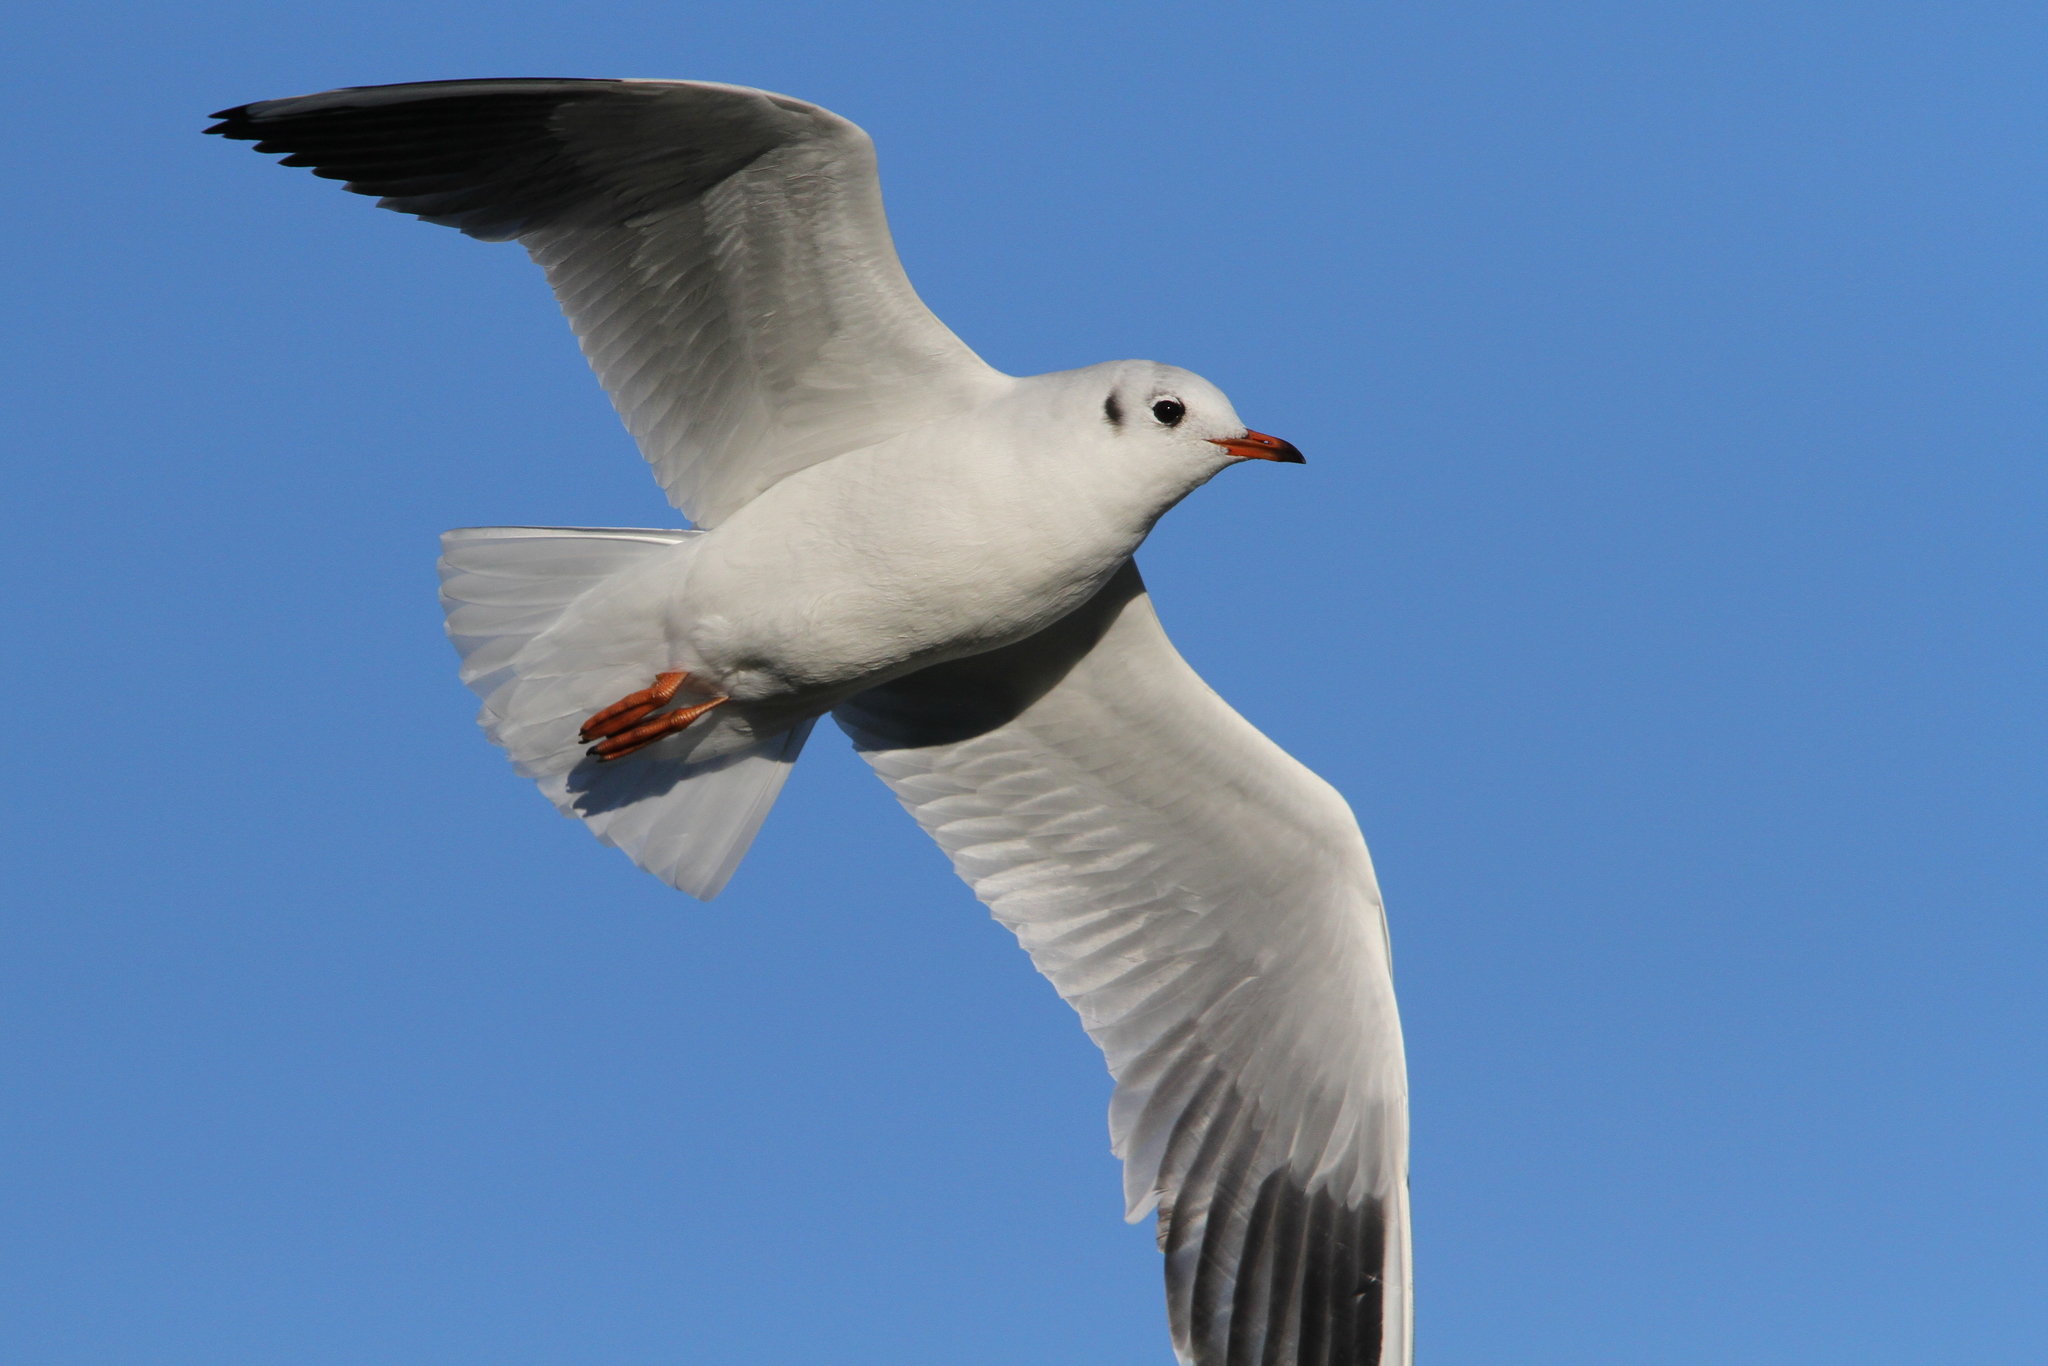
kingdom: Animalia
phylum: Chordata
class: Aves
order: Charadriiformes
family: Laridae
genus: Chroicocephalus
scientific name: Chroicocephalus ridibundus
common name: Black-headed gull
